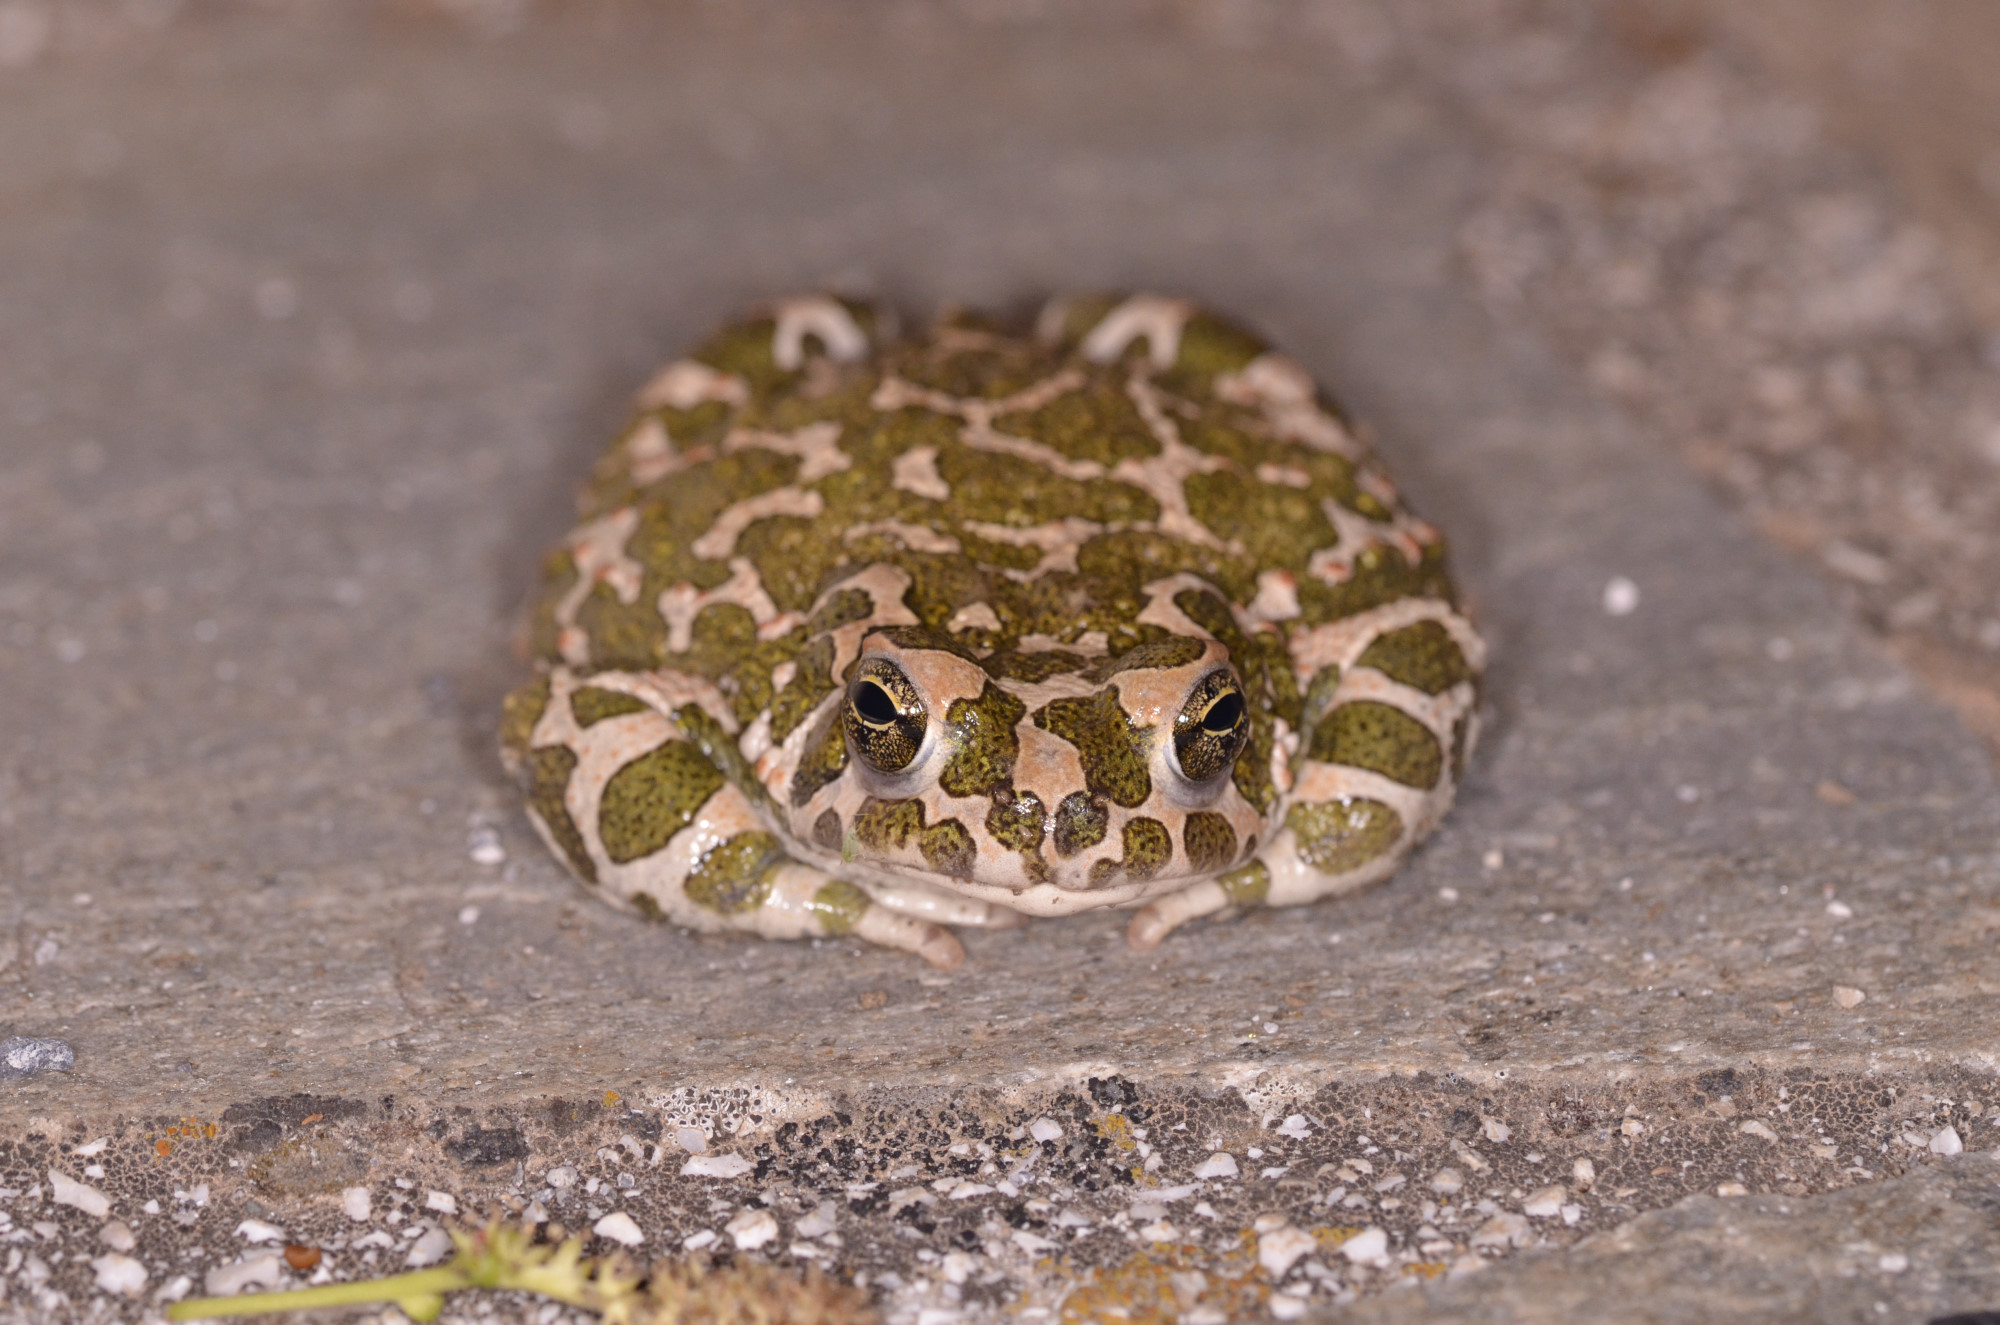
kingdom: Animalia
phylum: Chordata
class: Amphibia
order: Anura
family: Bufonidae
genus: Bufotes
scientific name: Bufotes viridis
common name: European green toad
